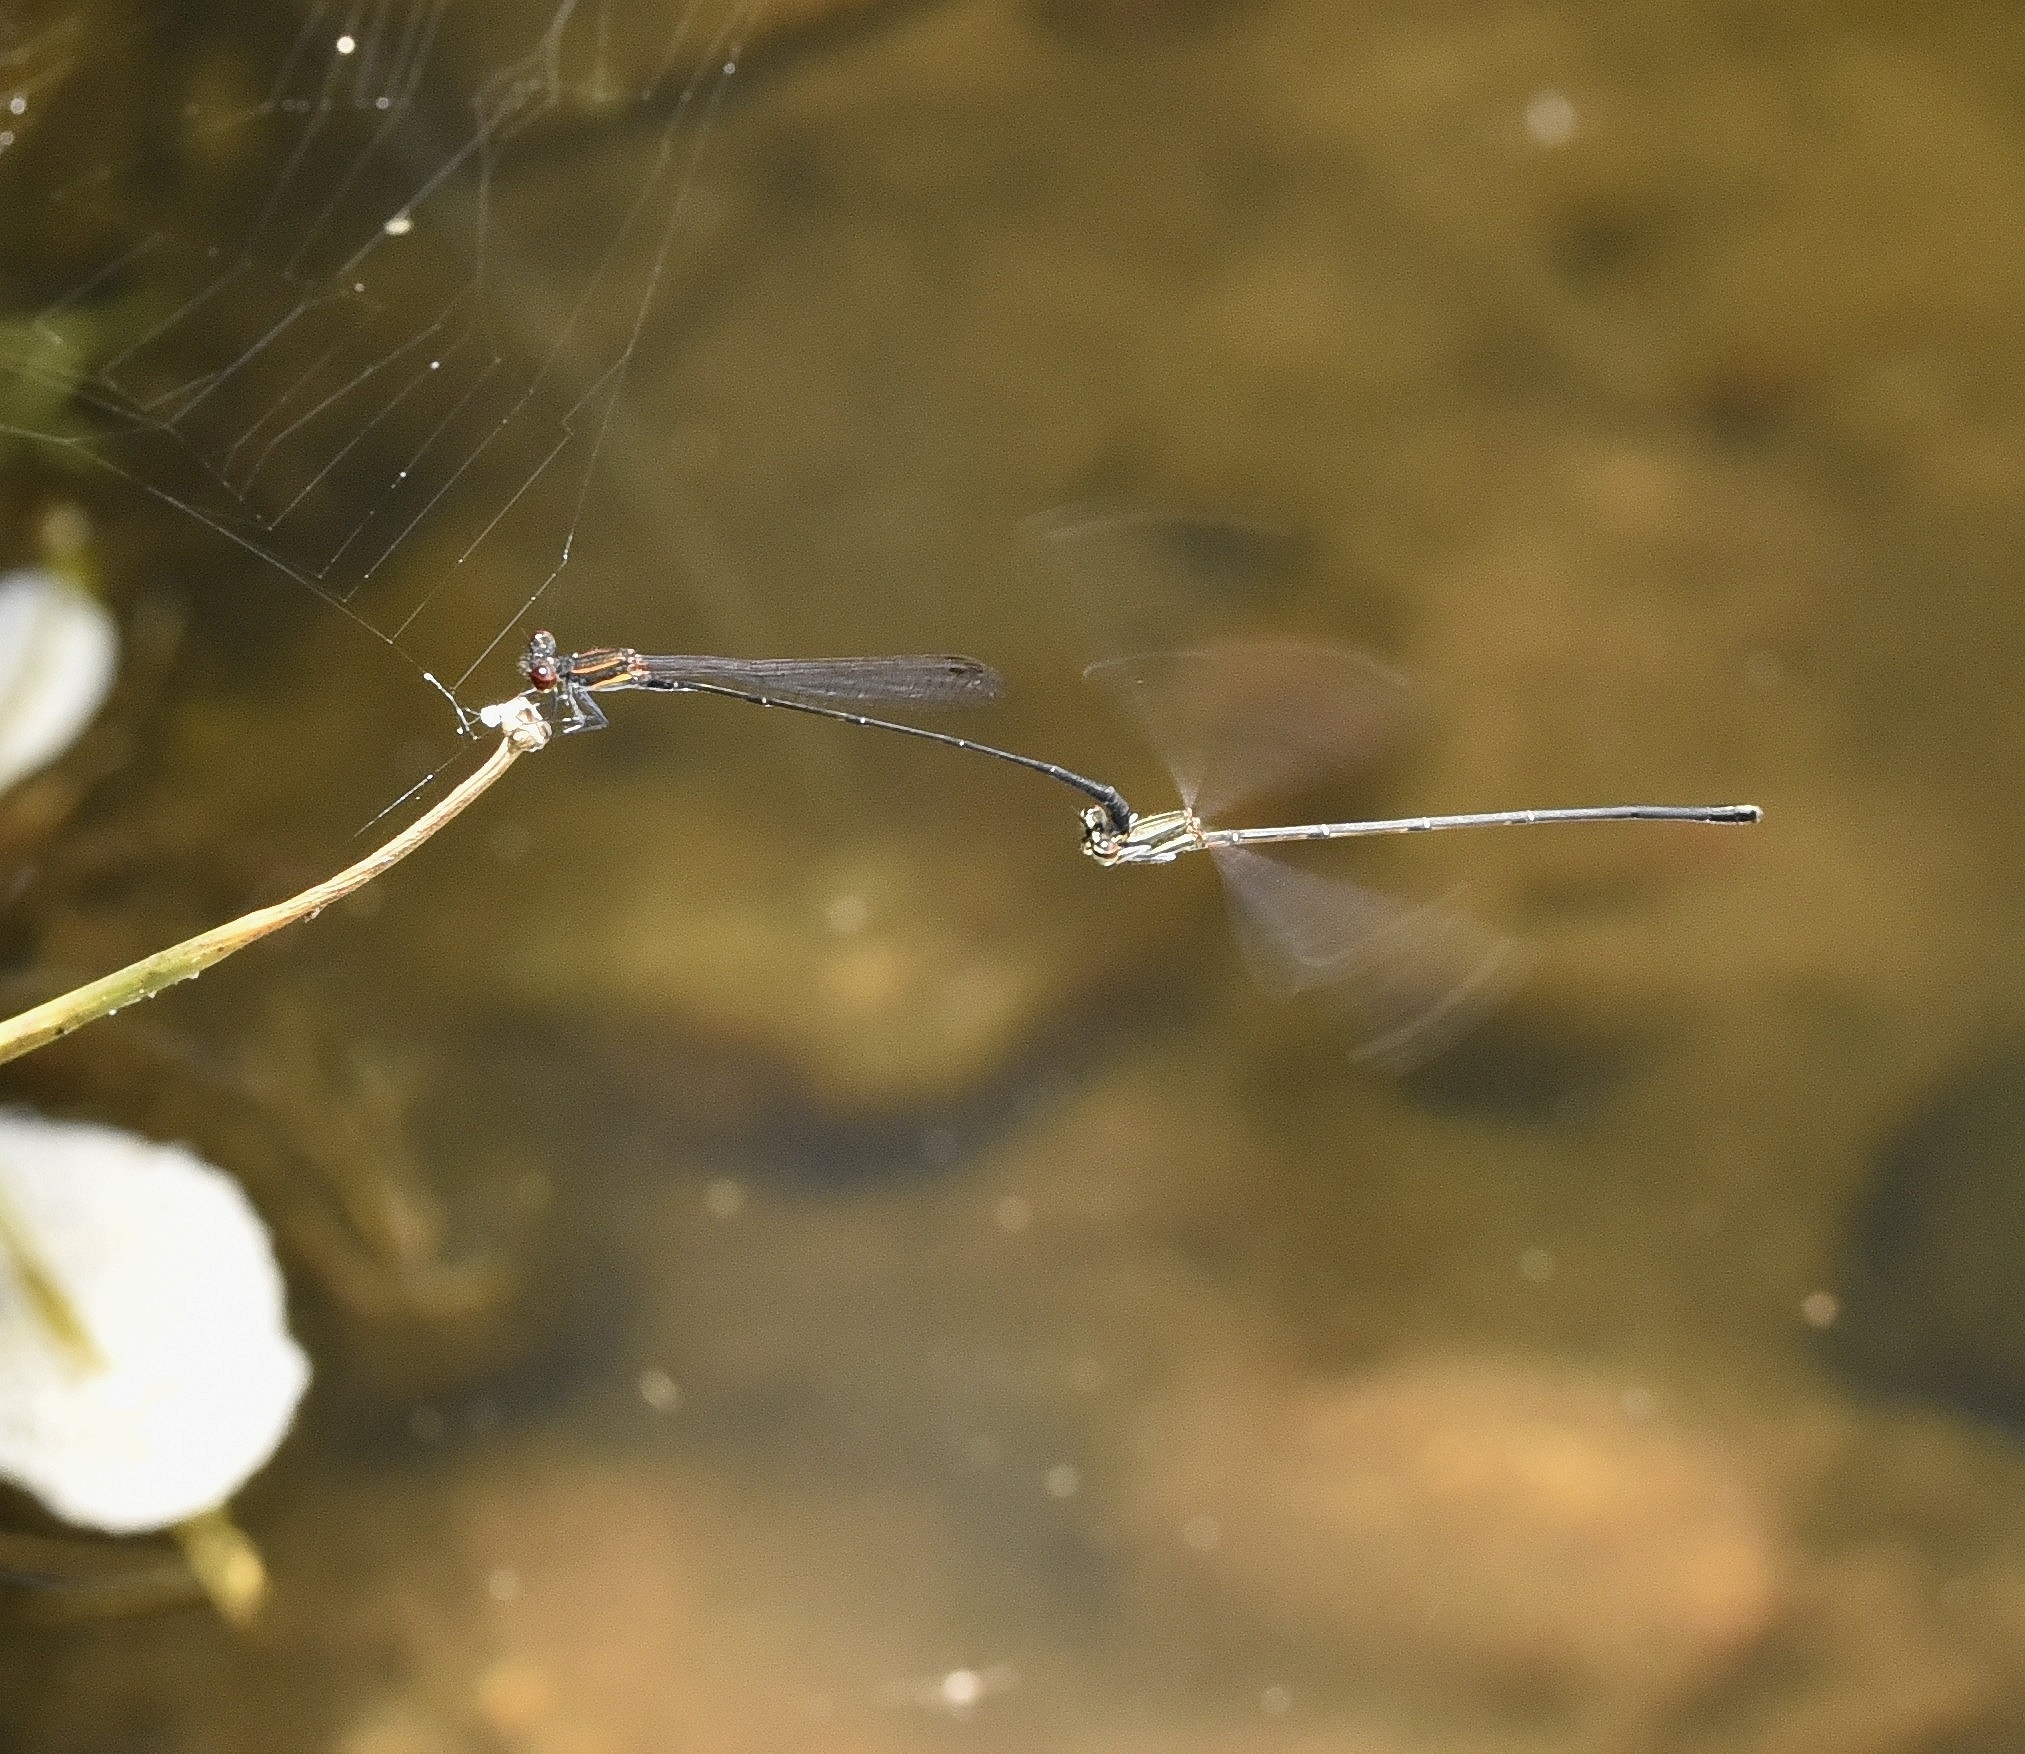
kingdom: Animalia
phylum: Arthropoda
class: Insecta
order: Odonata
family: Platycnemididae
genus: Prodasineura
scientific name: Prodasineura verticalis
